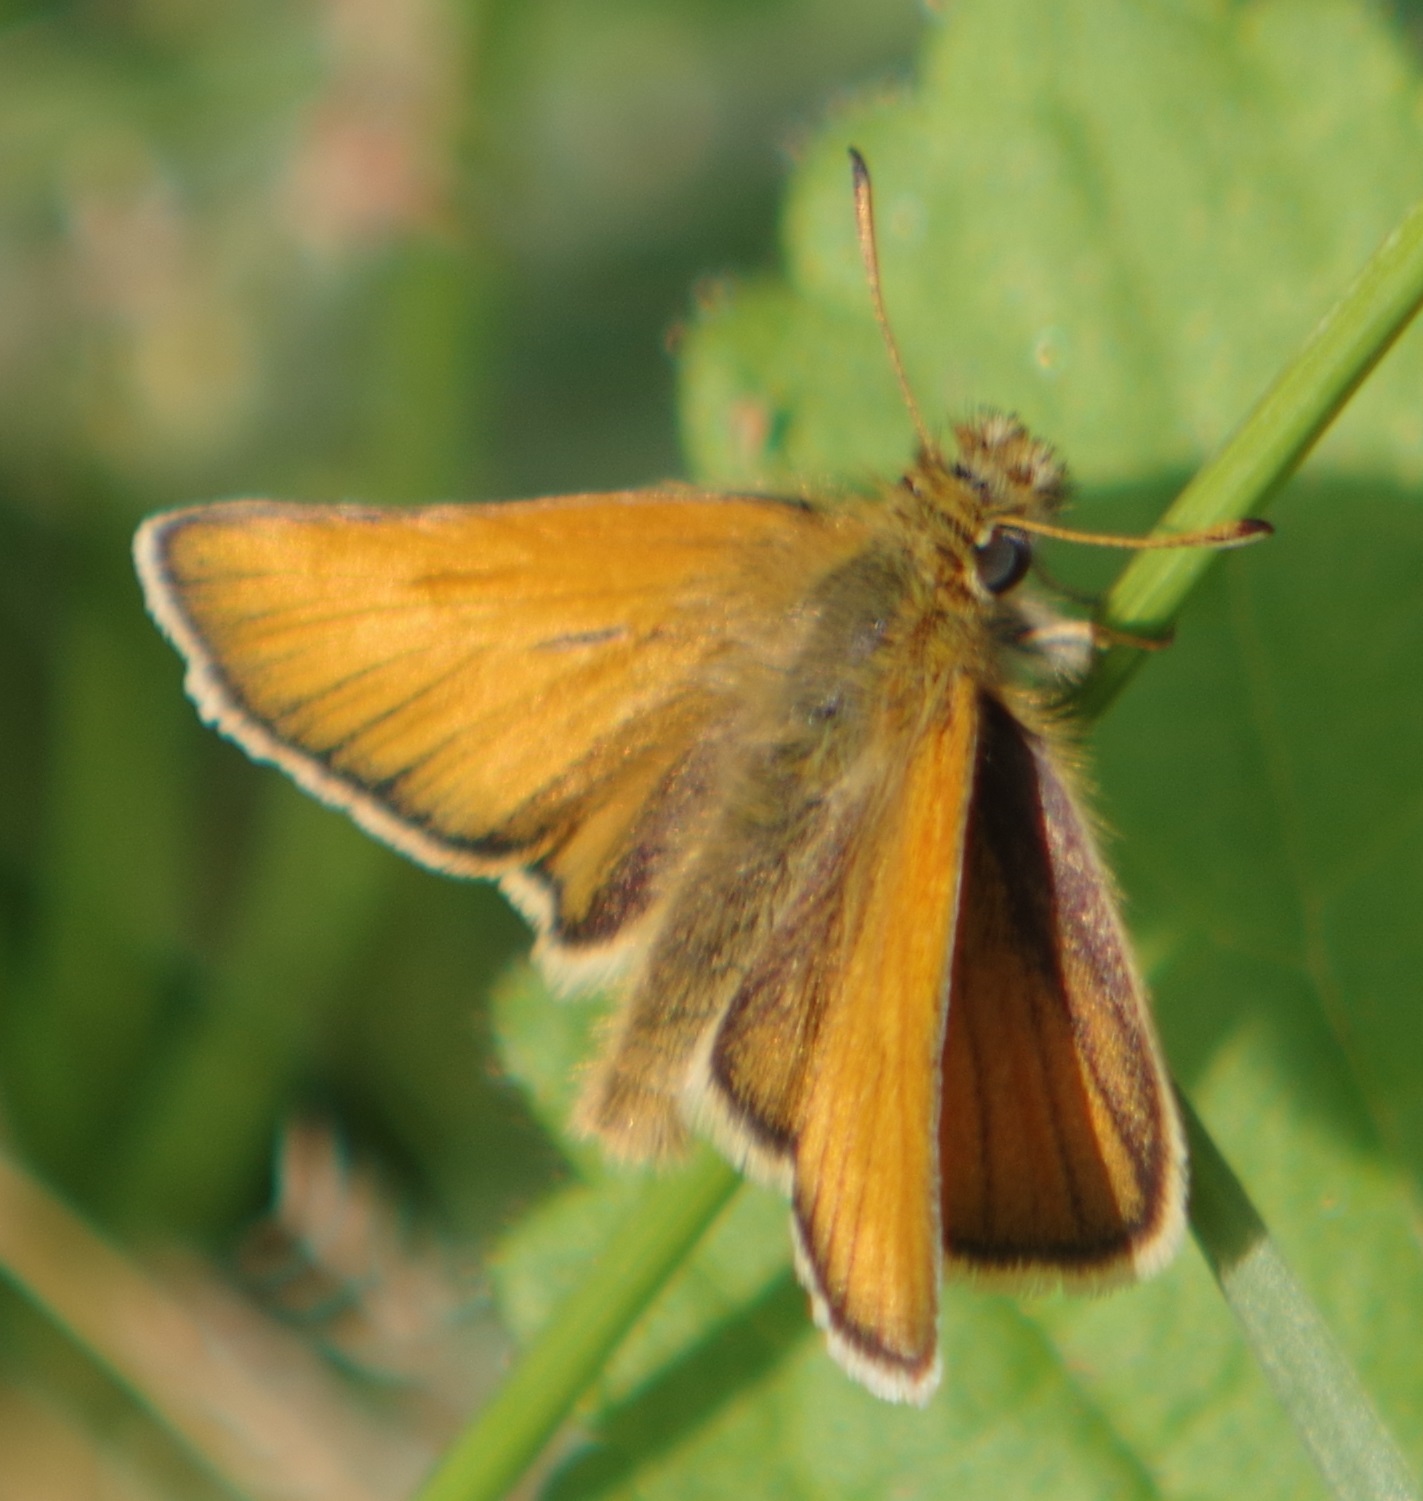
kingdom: Animalia
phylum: Arthropoda
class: Insecta
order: Lepidoptera
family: Hesperiidae
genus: Thymelicus
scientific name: Thymelicus lineola
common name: Essex skipper
